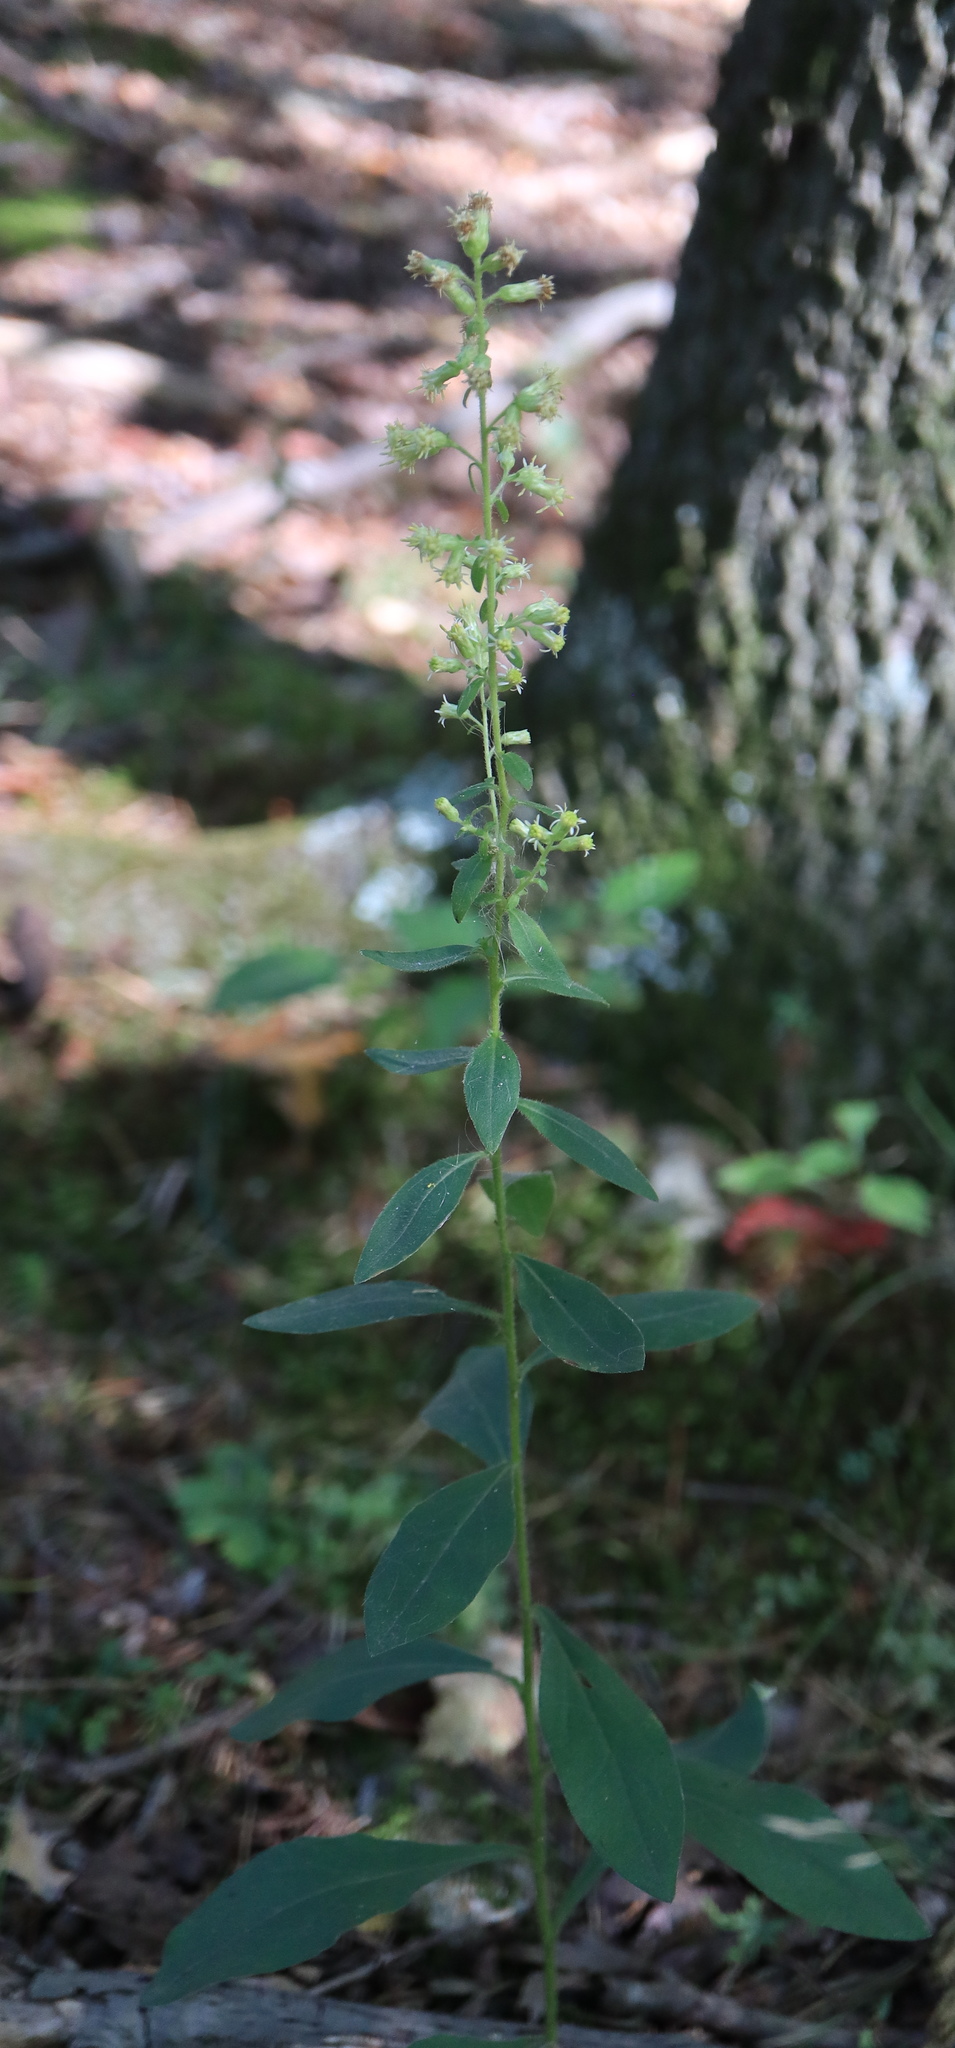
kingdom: Plantae
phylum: Tracheophyta
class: Magnoliopsida
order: Asterales
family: Asteraceae
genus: Solidago
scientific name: Solidago bicolor
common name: Silverrod
